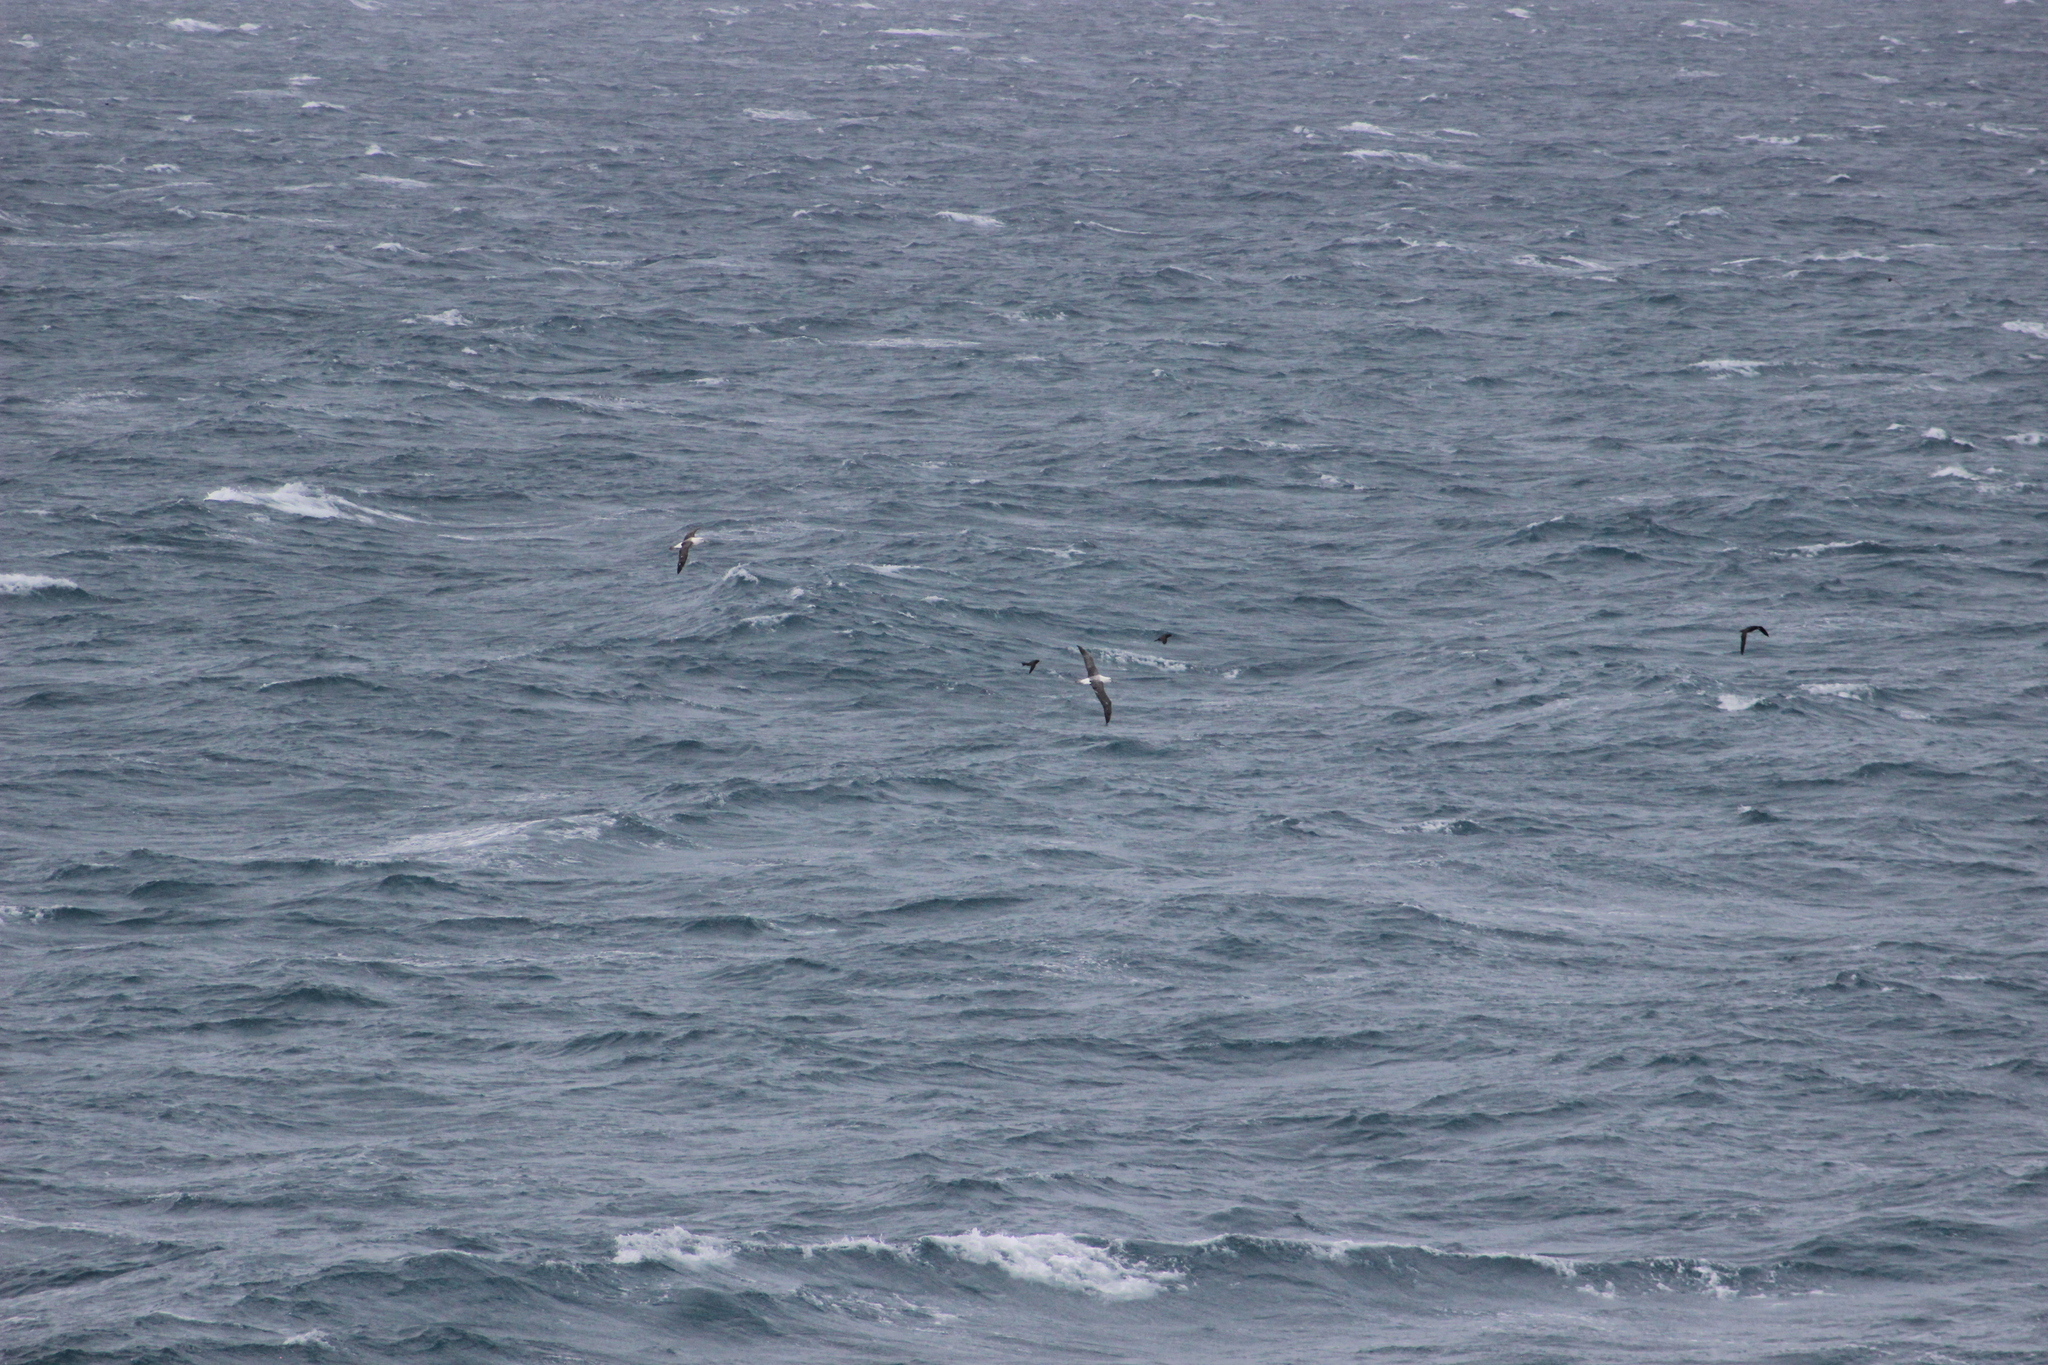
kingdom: Animalia
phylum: Chordata
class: Aves
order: Procellariiformes
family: Diomedeidae
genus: Thalassarche
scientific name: Thalassarche cauta
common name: Shy albatross
